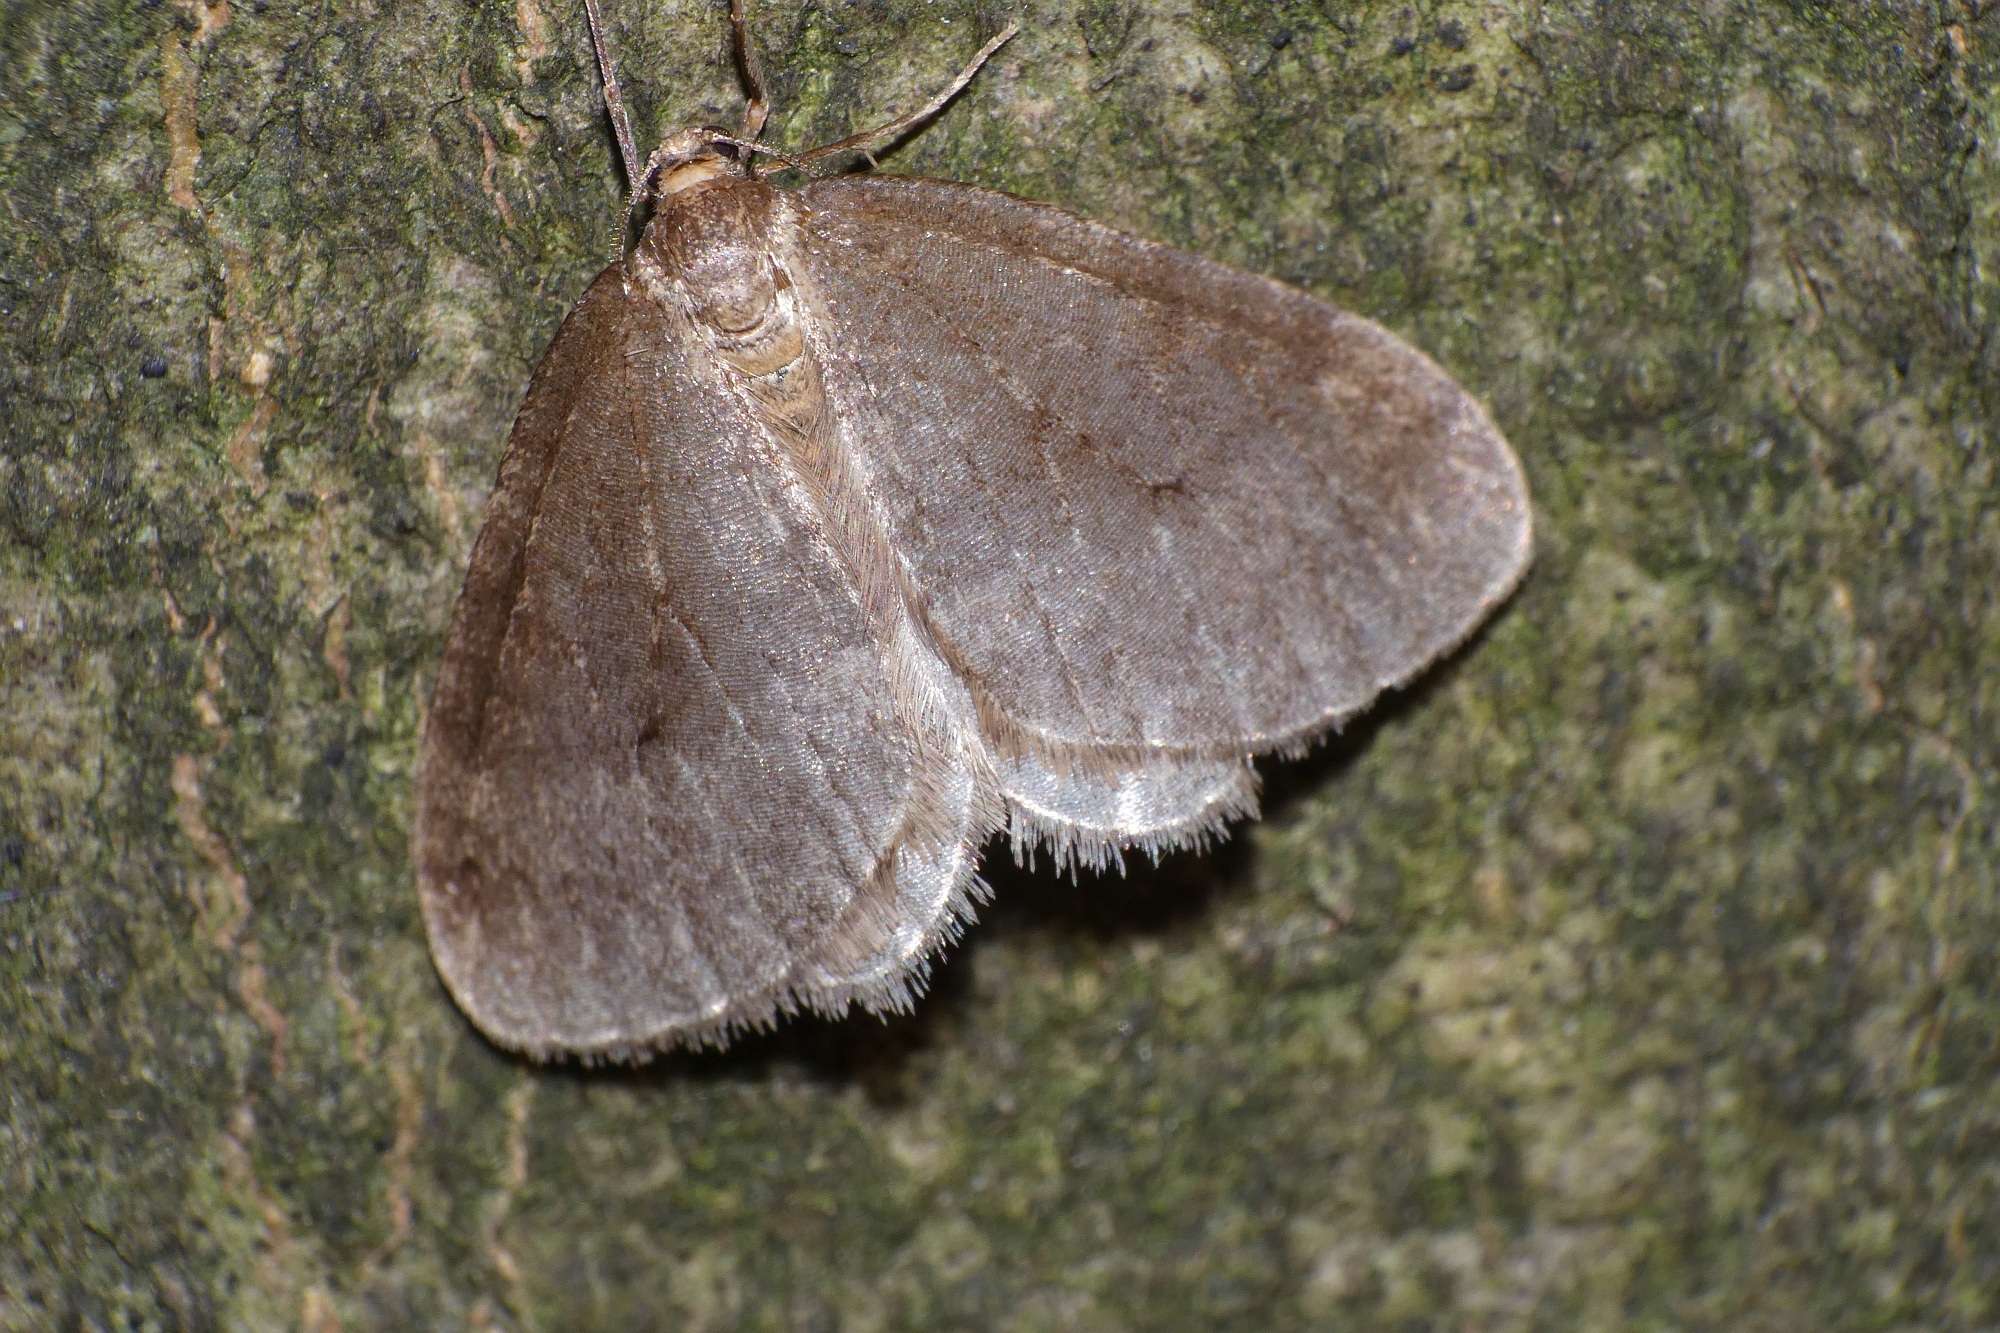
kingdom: Animalia
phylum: Arthropoda
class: Insecta
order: Lepidoptera
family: Geometridae
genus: Operophtera
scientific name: Operophtera brumata
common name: Winter moth
